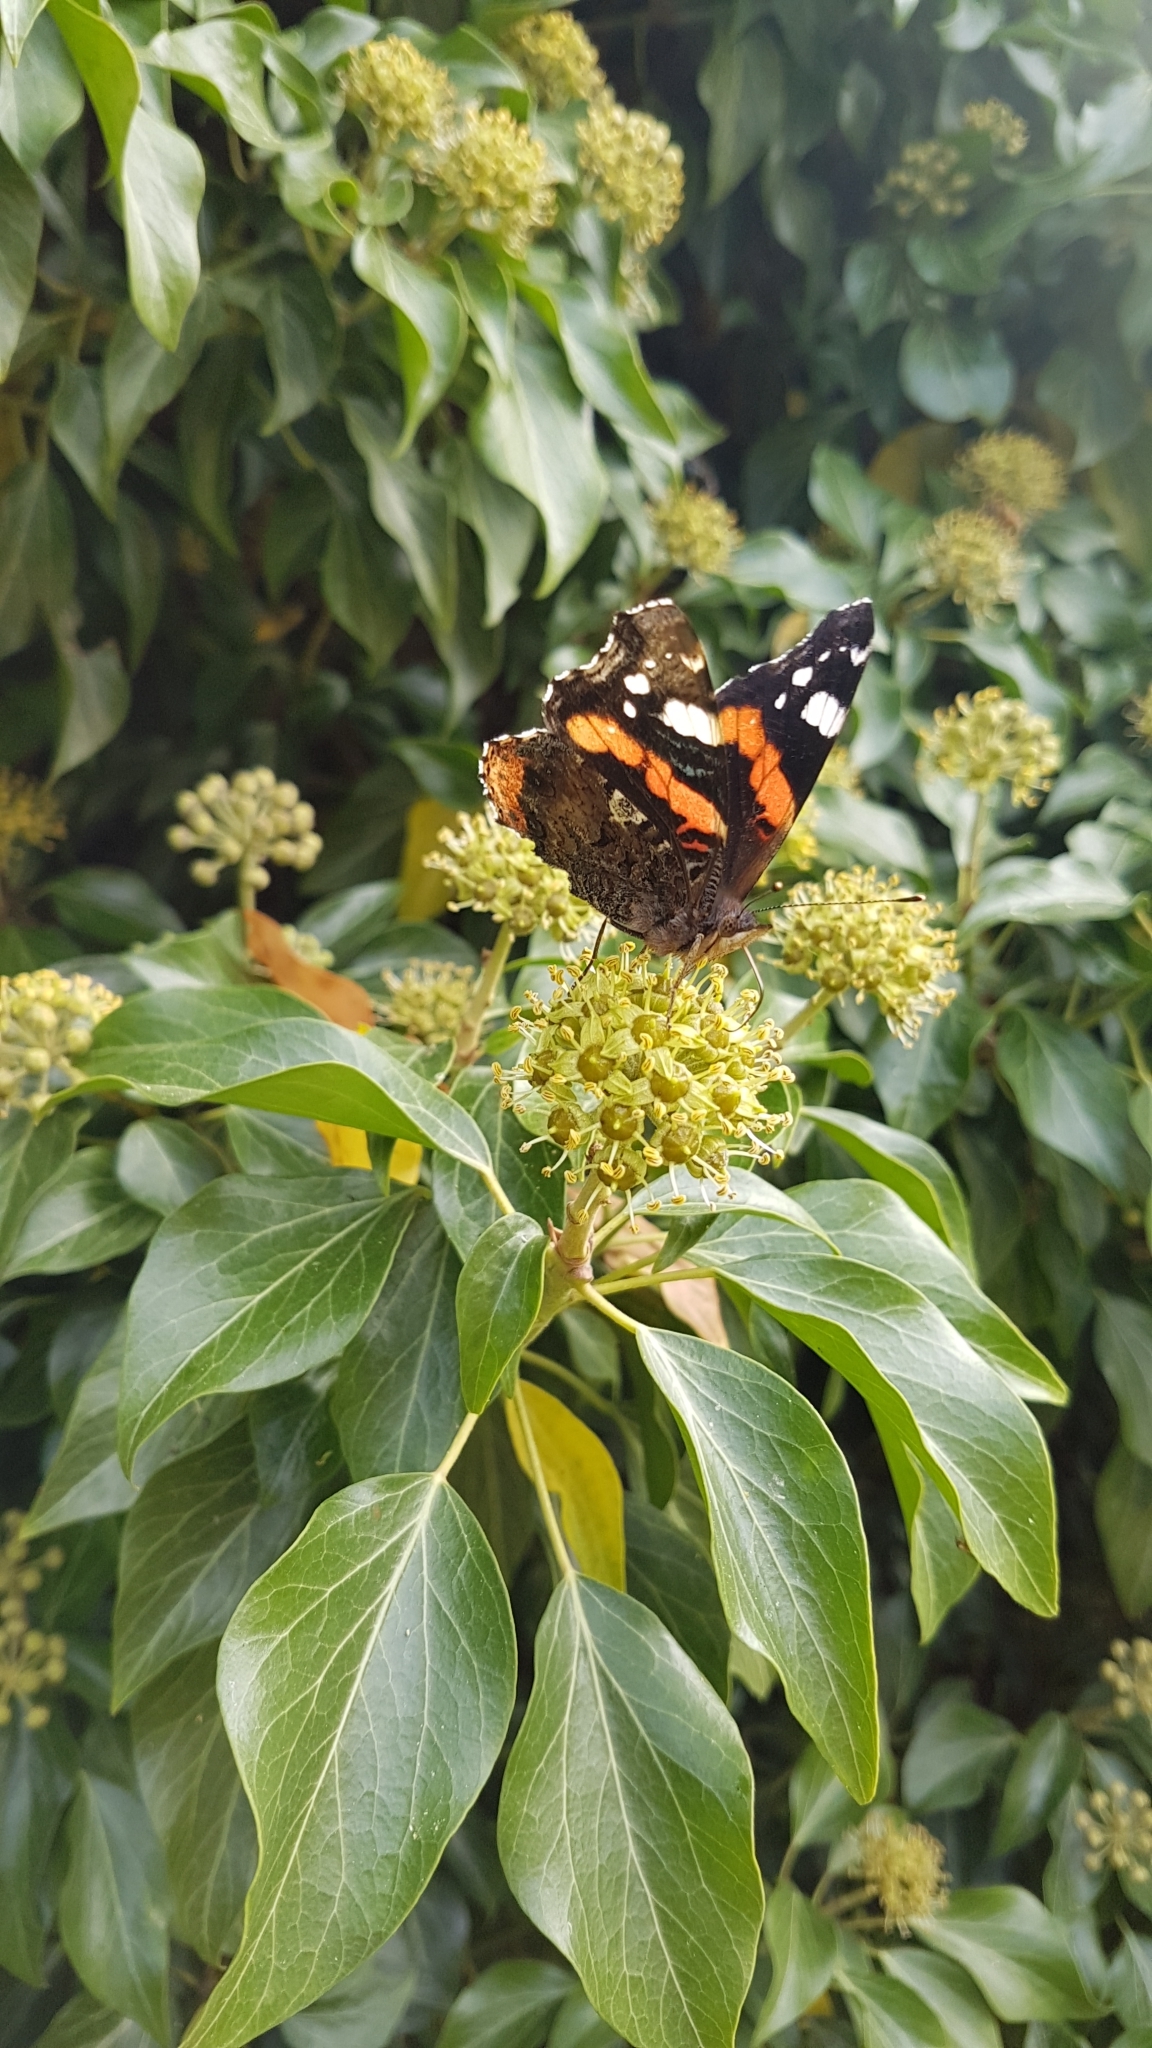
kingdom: Animalia
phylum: Arthropoda
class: Insecta
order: Lepidoptera
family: Nymphalidae
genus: Vanessa
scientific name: Vanessa atalanta
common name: Red admiral
